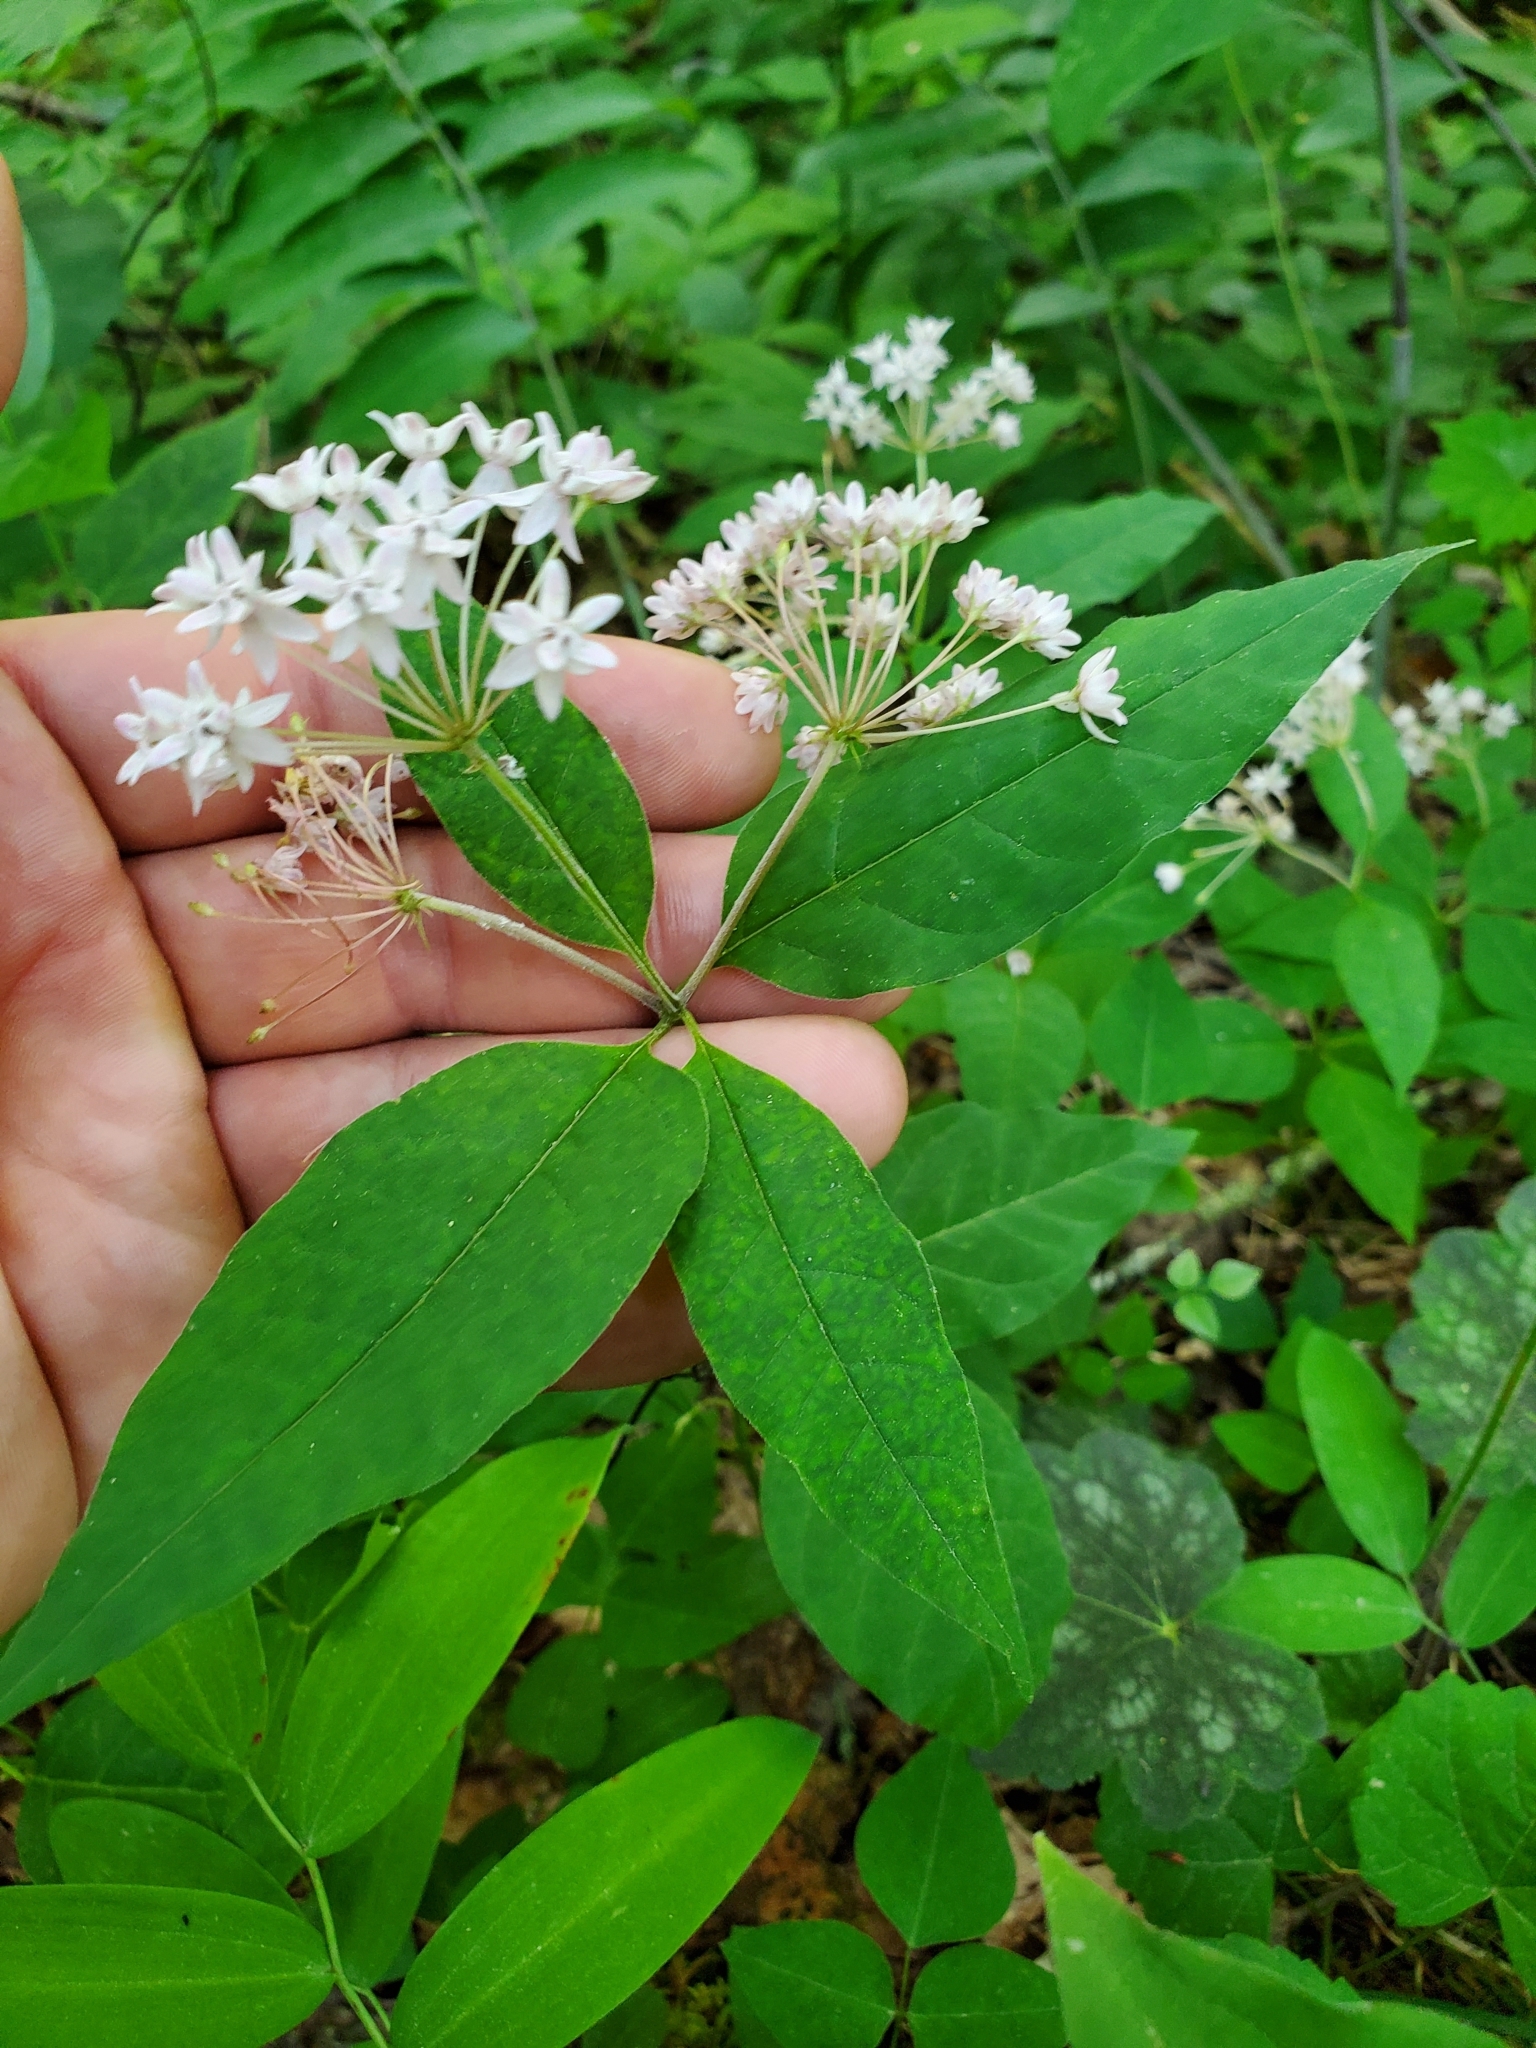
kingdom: Plantae
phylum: Tracheophyta
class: Magnoliopsida
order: Gentianales
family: Apocynaceae
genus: Asclepias
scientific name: Asclepias quadrifolia
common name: Whorled milkweed
